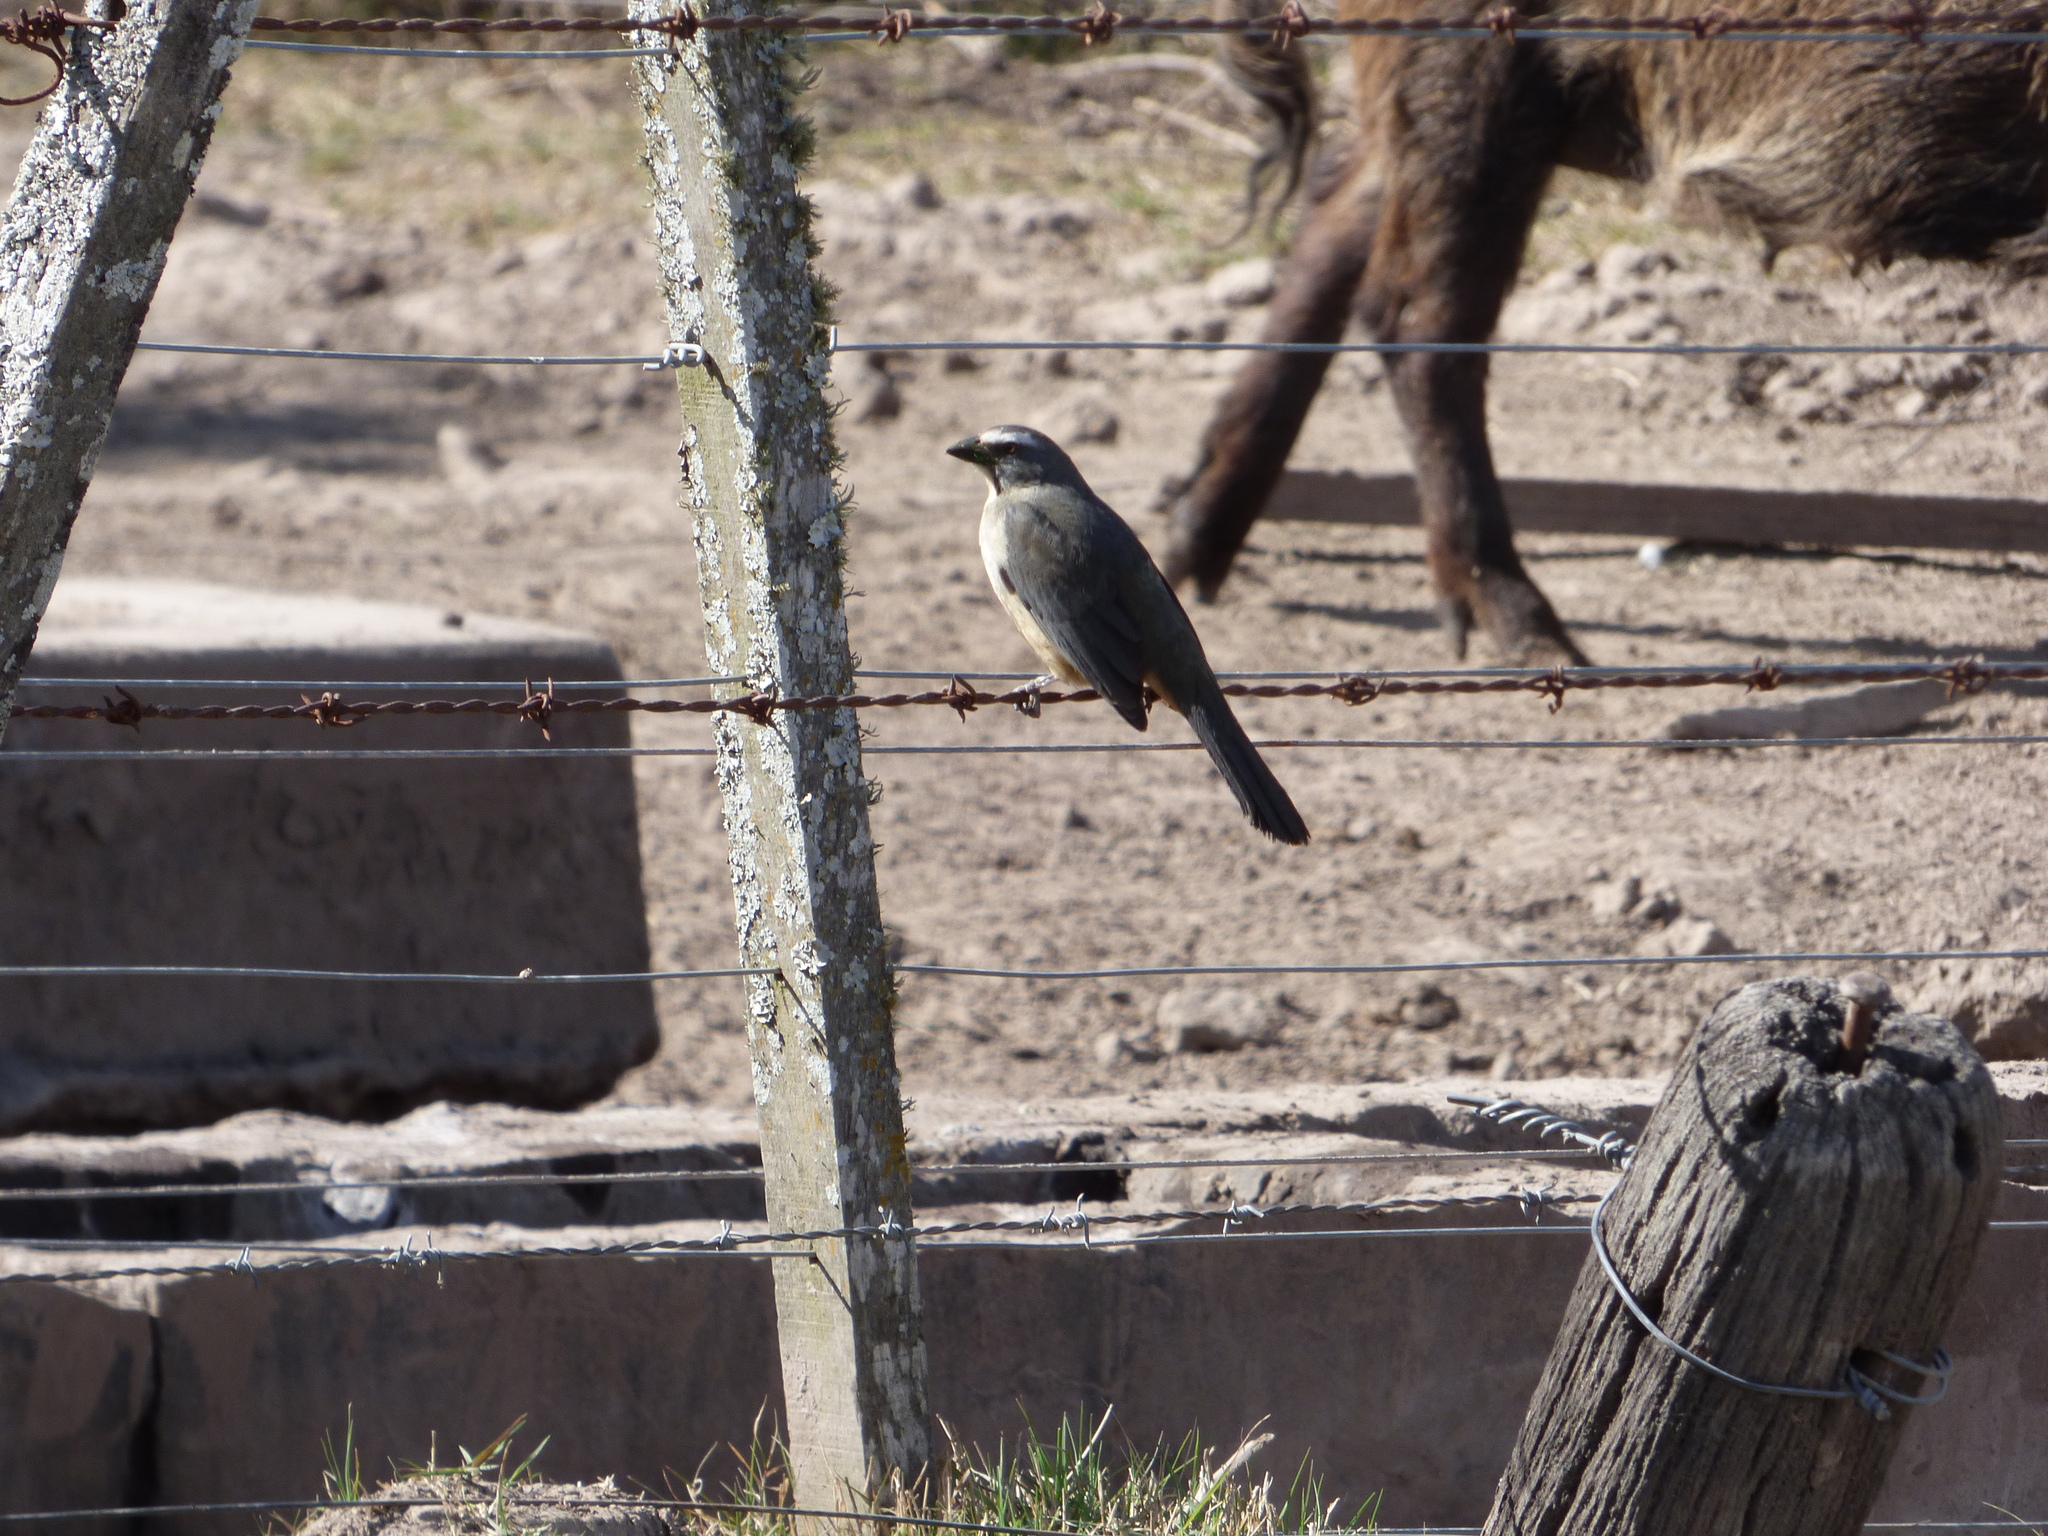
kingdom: Animalia
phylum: Chordata
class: Aves
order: Passeriformes
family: Thraupidae
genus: Saltator
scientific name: Saltator coerulescens
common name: Grayish saltator
